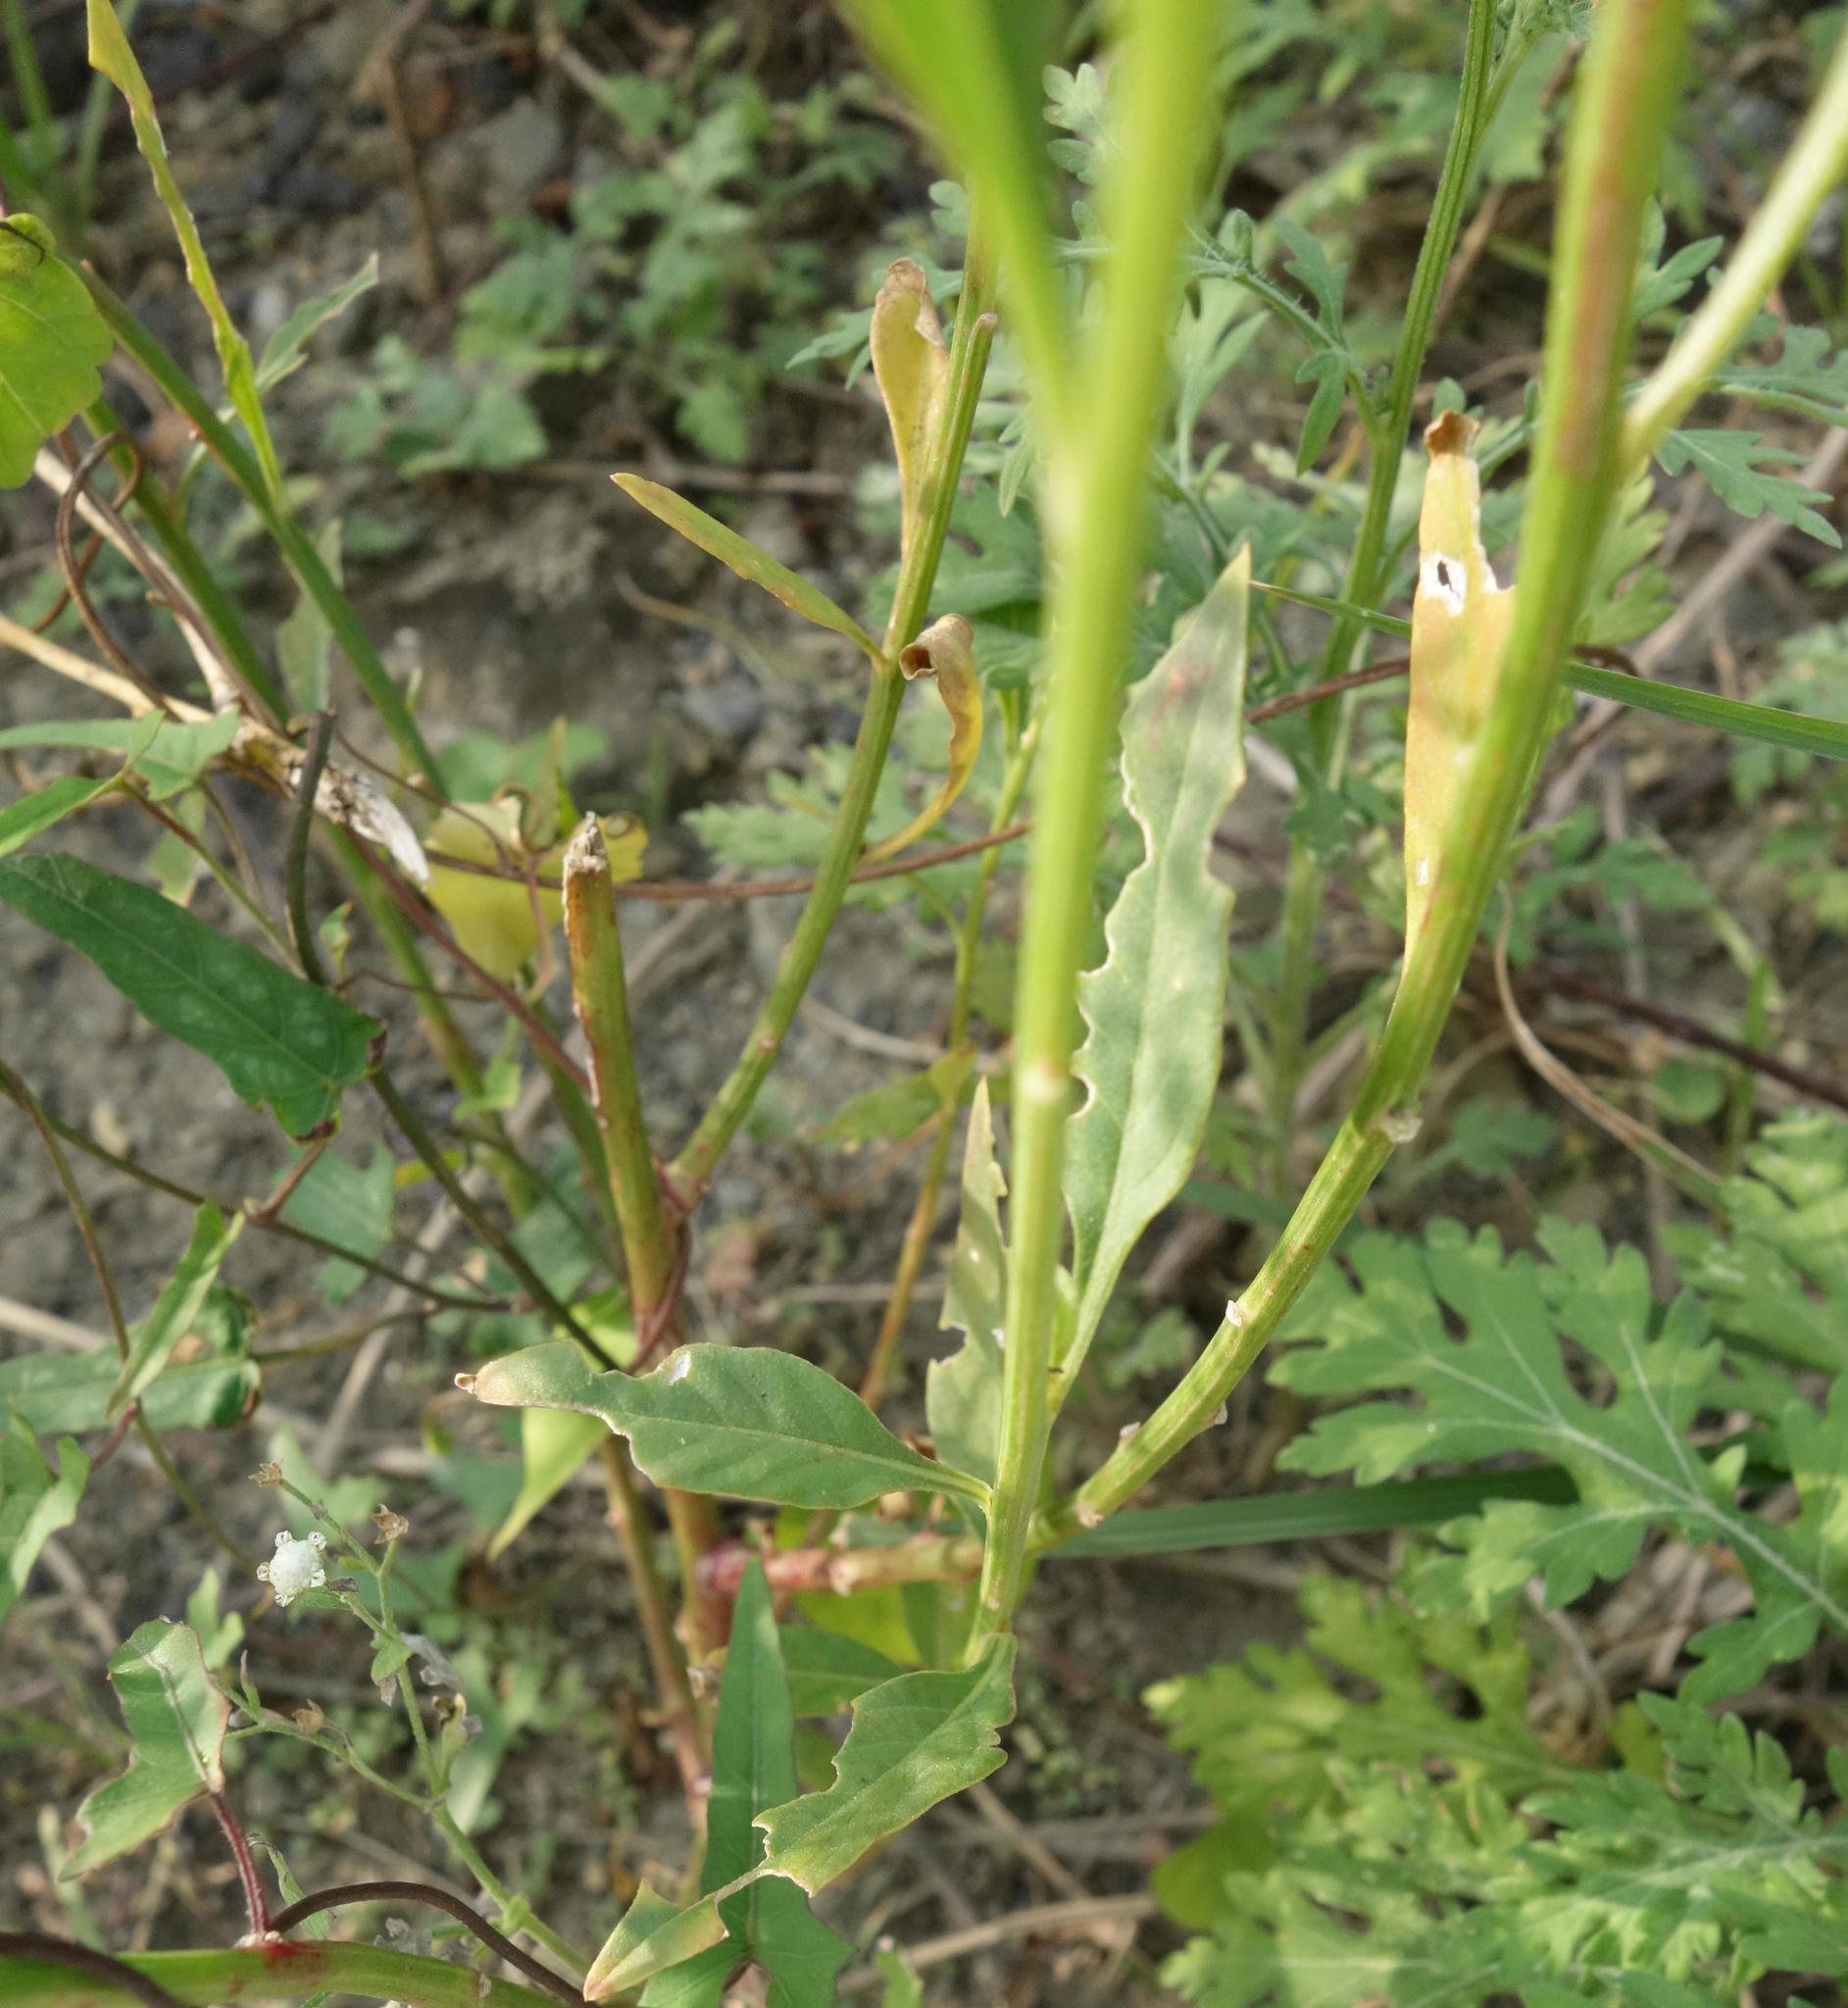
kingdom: Plantae
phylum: Tracheophyta
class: Magnoliopsida
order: Asterales
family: Asteraceae
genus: Parthenium
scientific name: Parthenium hysterophorus
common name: Santa maria feverfew
